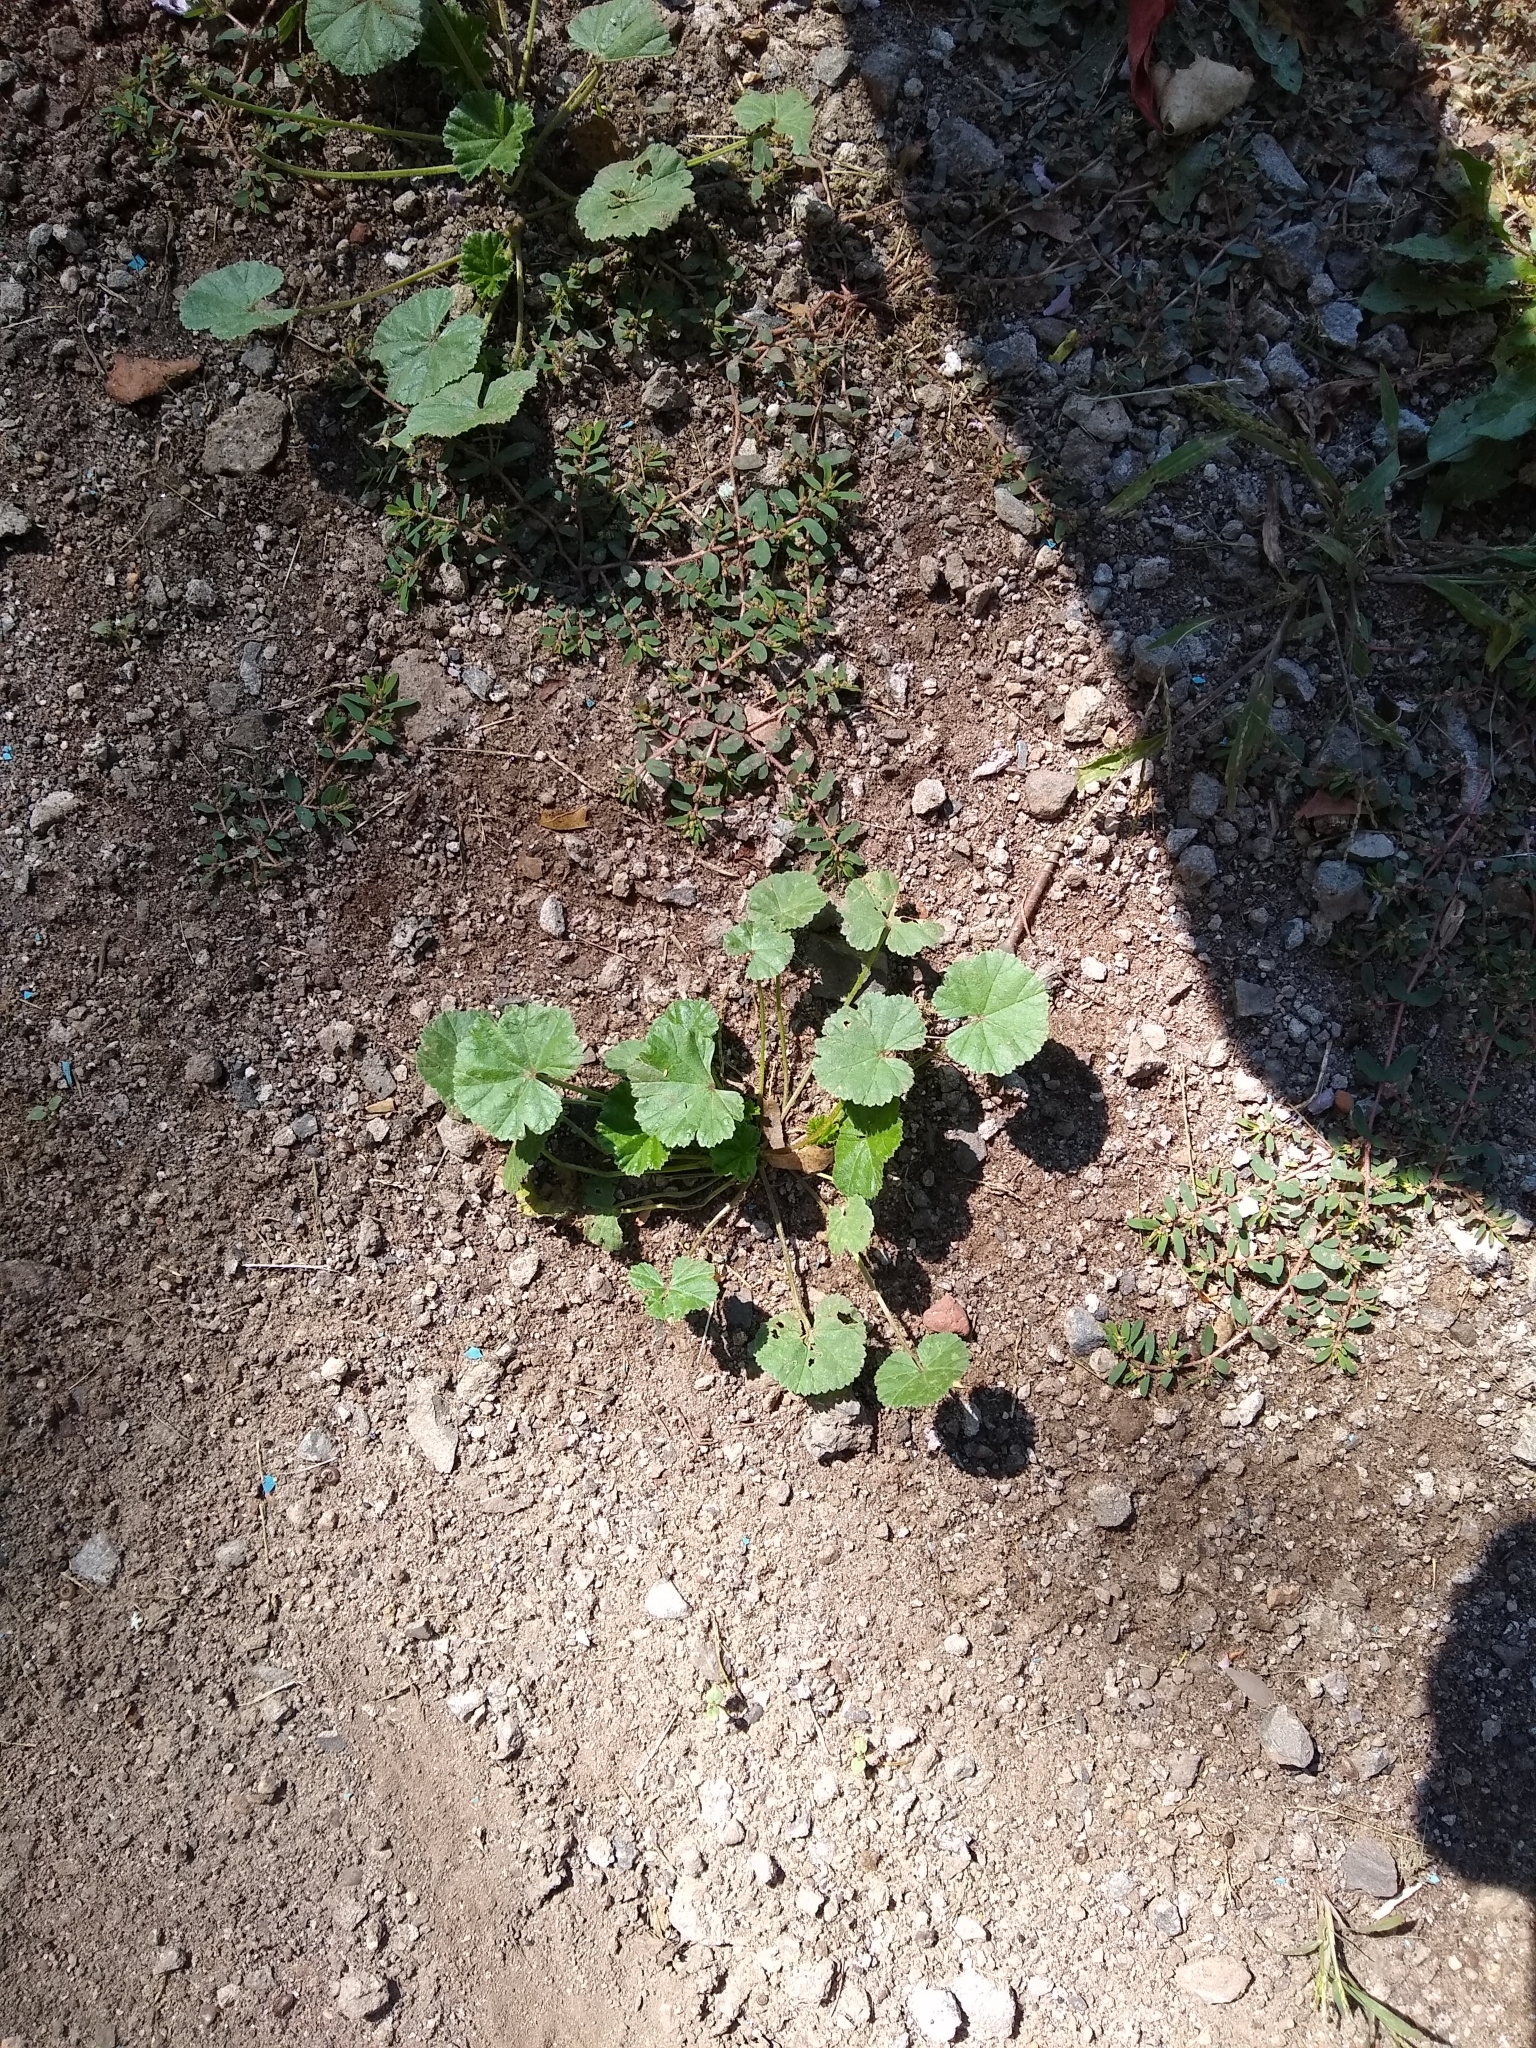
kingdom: Plantae
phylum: Tracheophyta
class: Magnoliopsida
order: Malvales
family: Malvaceae
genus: Malva
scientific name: Malva neglecta
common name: Common mallow
